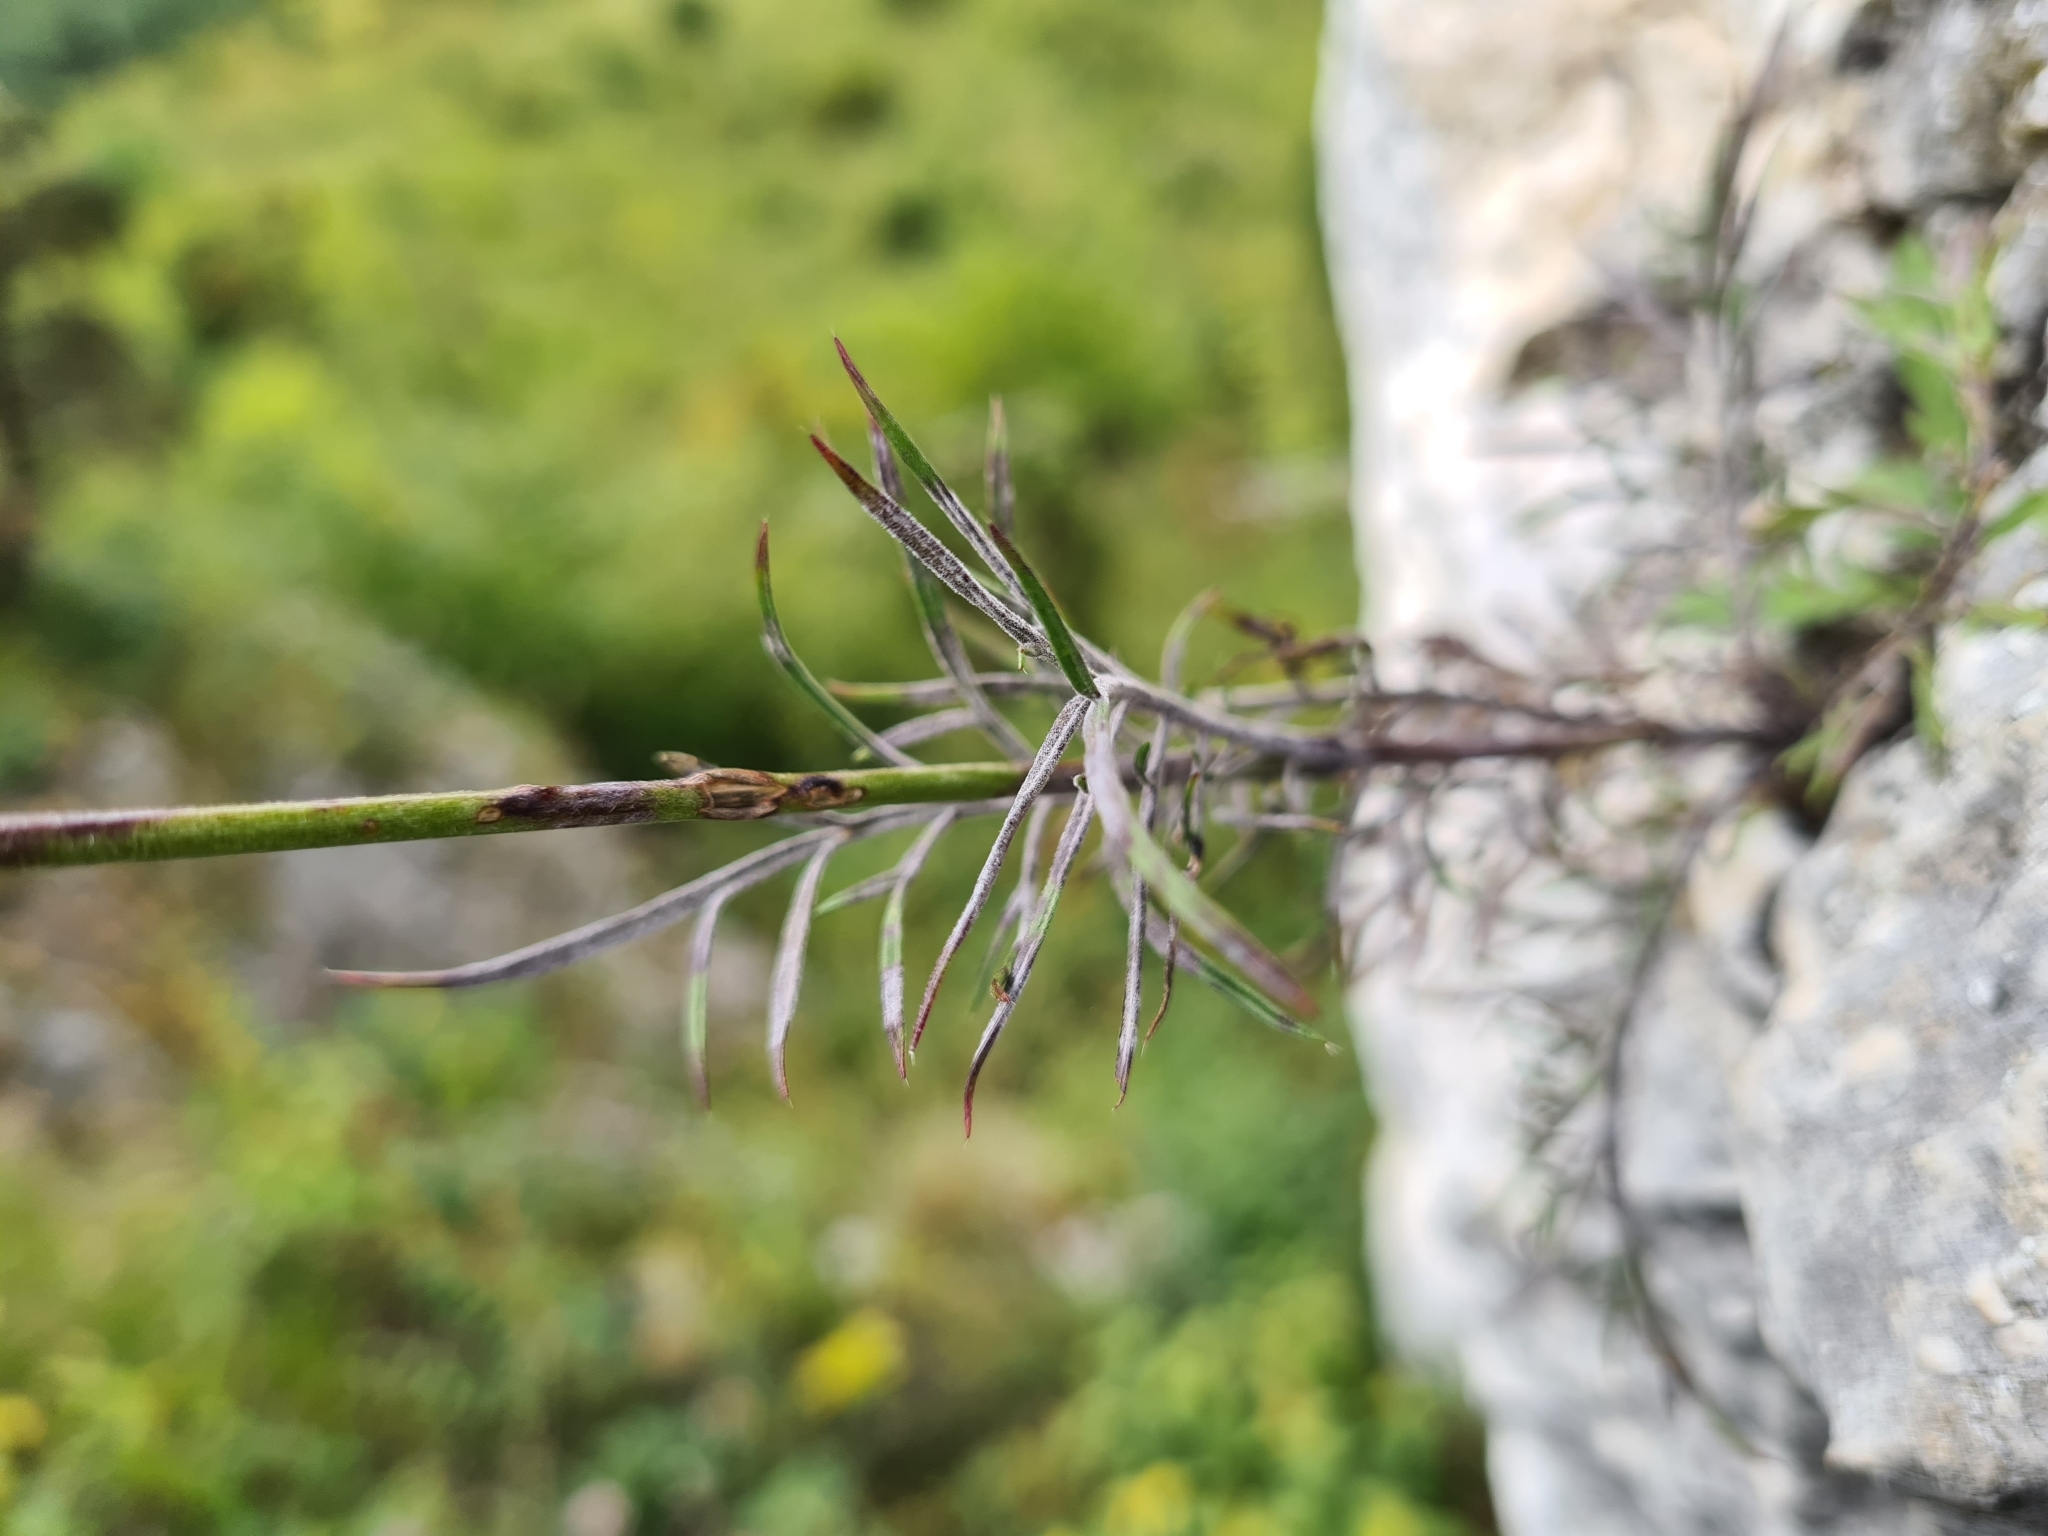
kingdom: Plantae
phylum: Tracheophyta
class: Magnoliopsida
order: Dipsacales
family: Caprifoliaceae
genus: Scabiosa
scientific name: Scabiosa ochroleuca
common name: Cream pincushions
